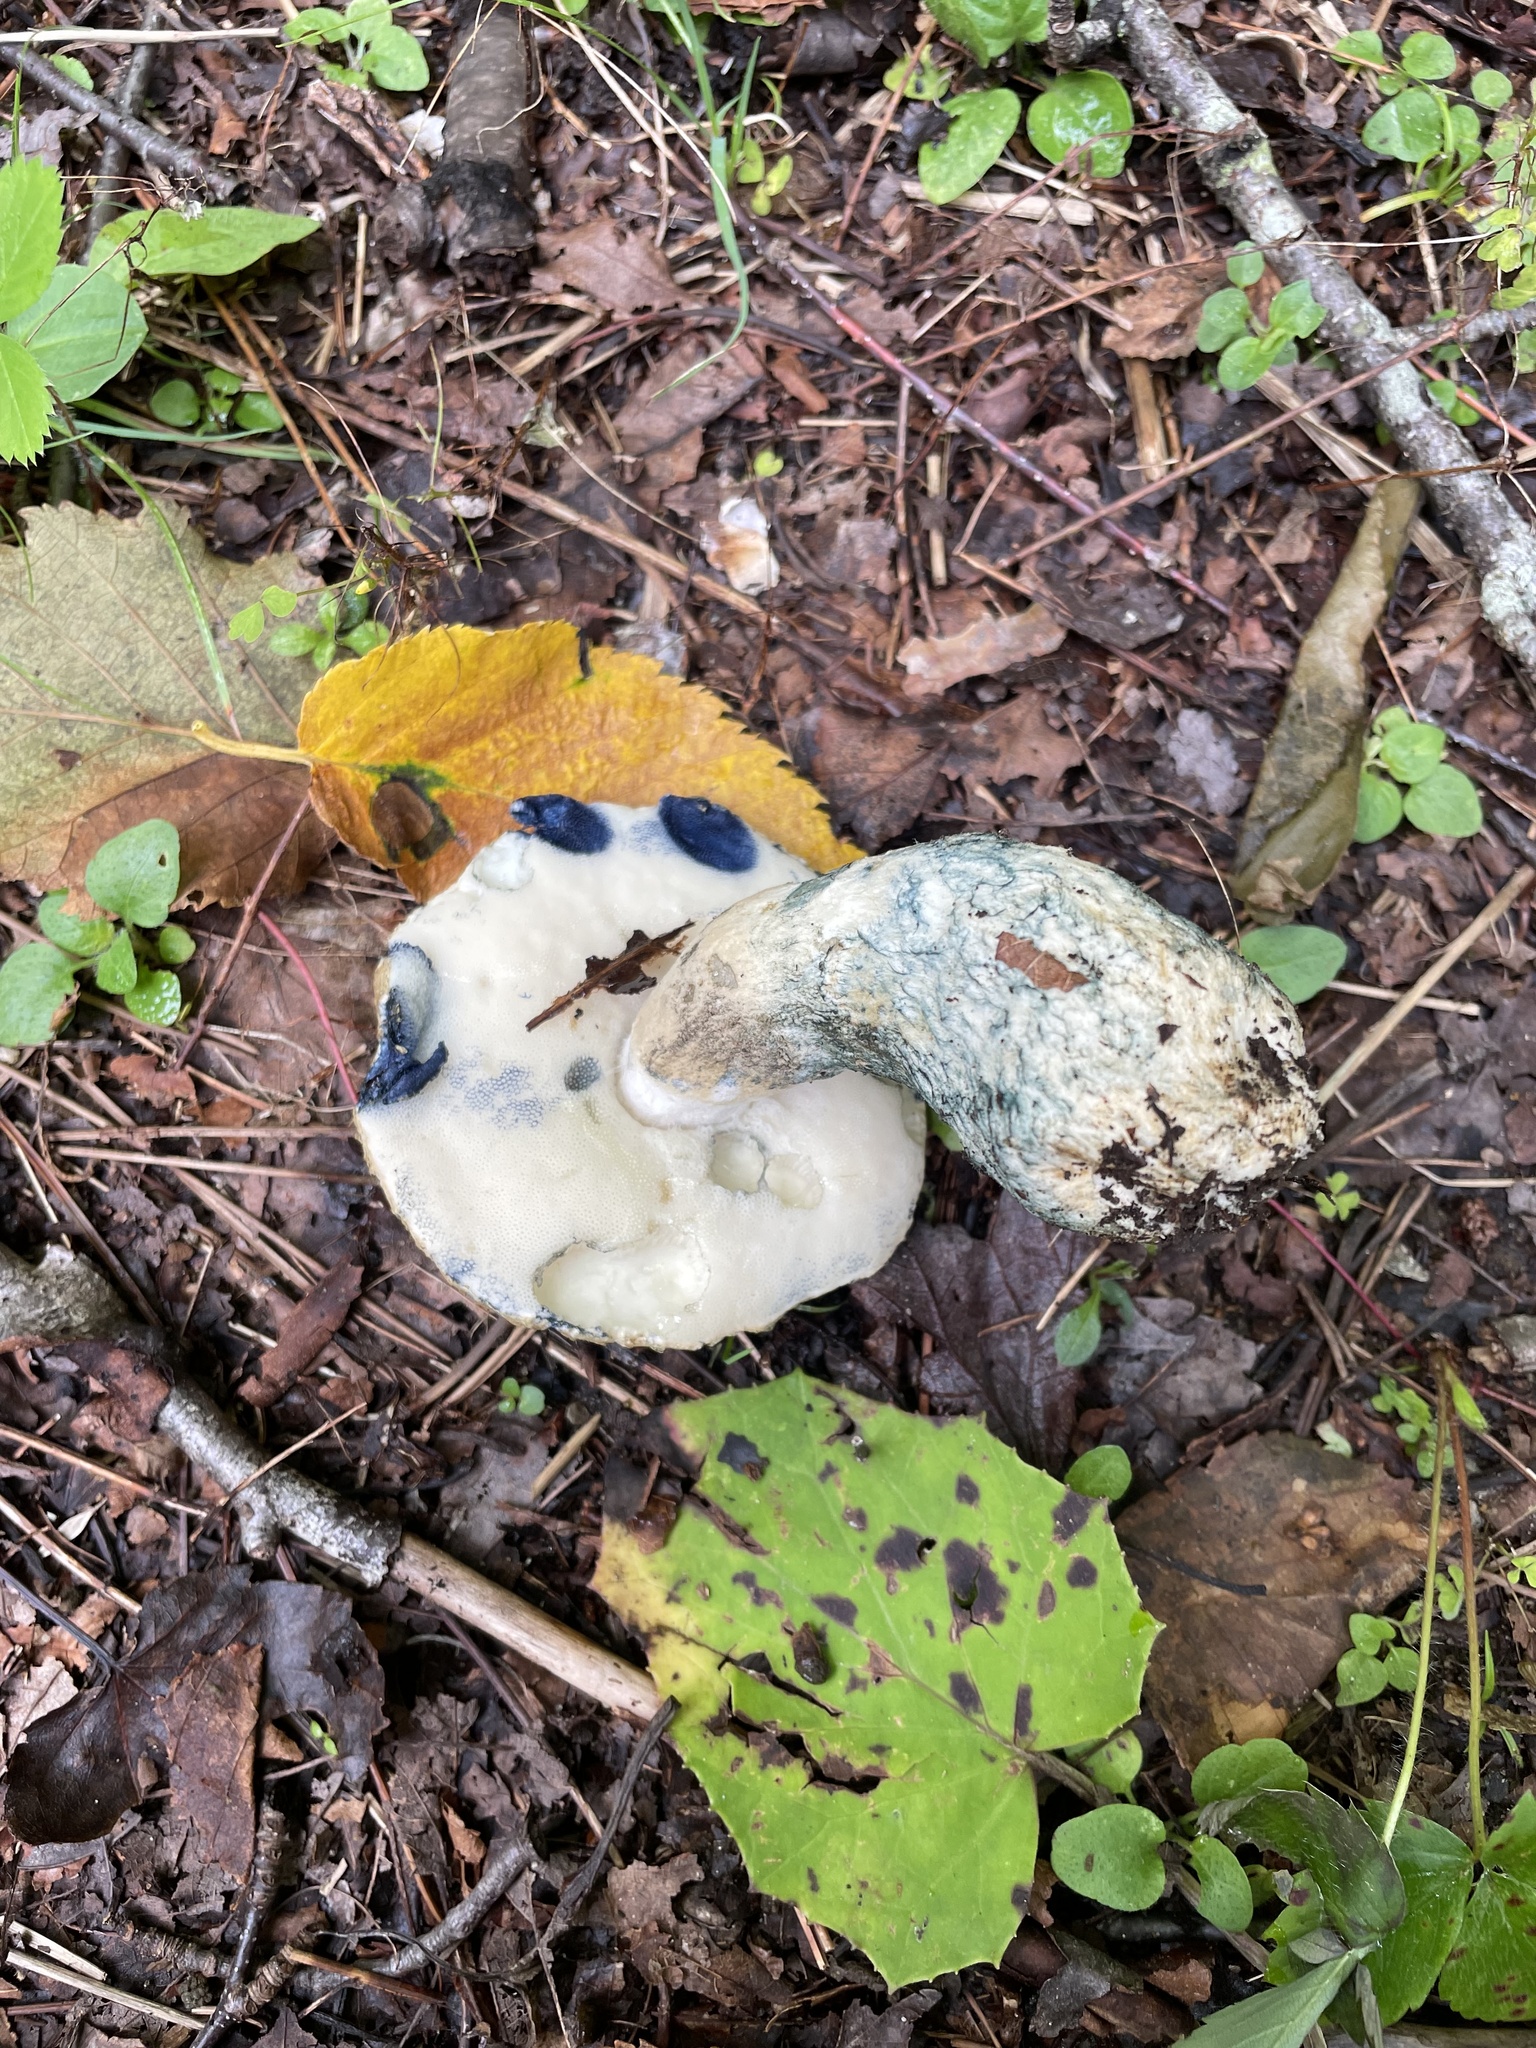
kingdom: Fungi
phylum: Basidiomycota
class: Agaricomycetes
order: Boletales
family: Gyroporaceae
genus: Gyroporus
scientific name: Gyroporus cyanescens
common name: Cornflower bolete
